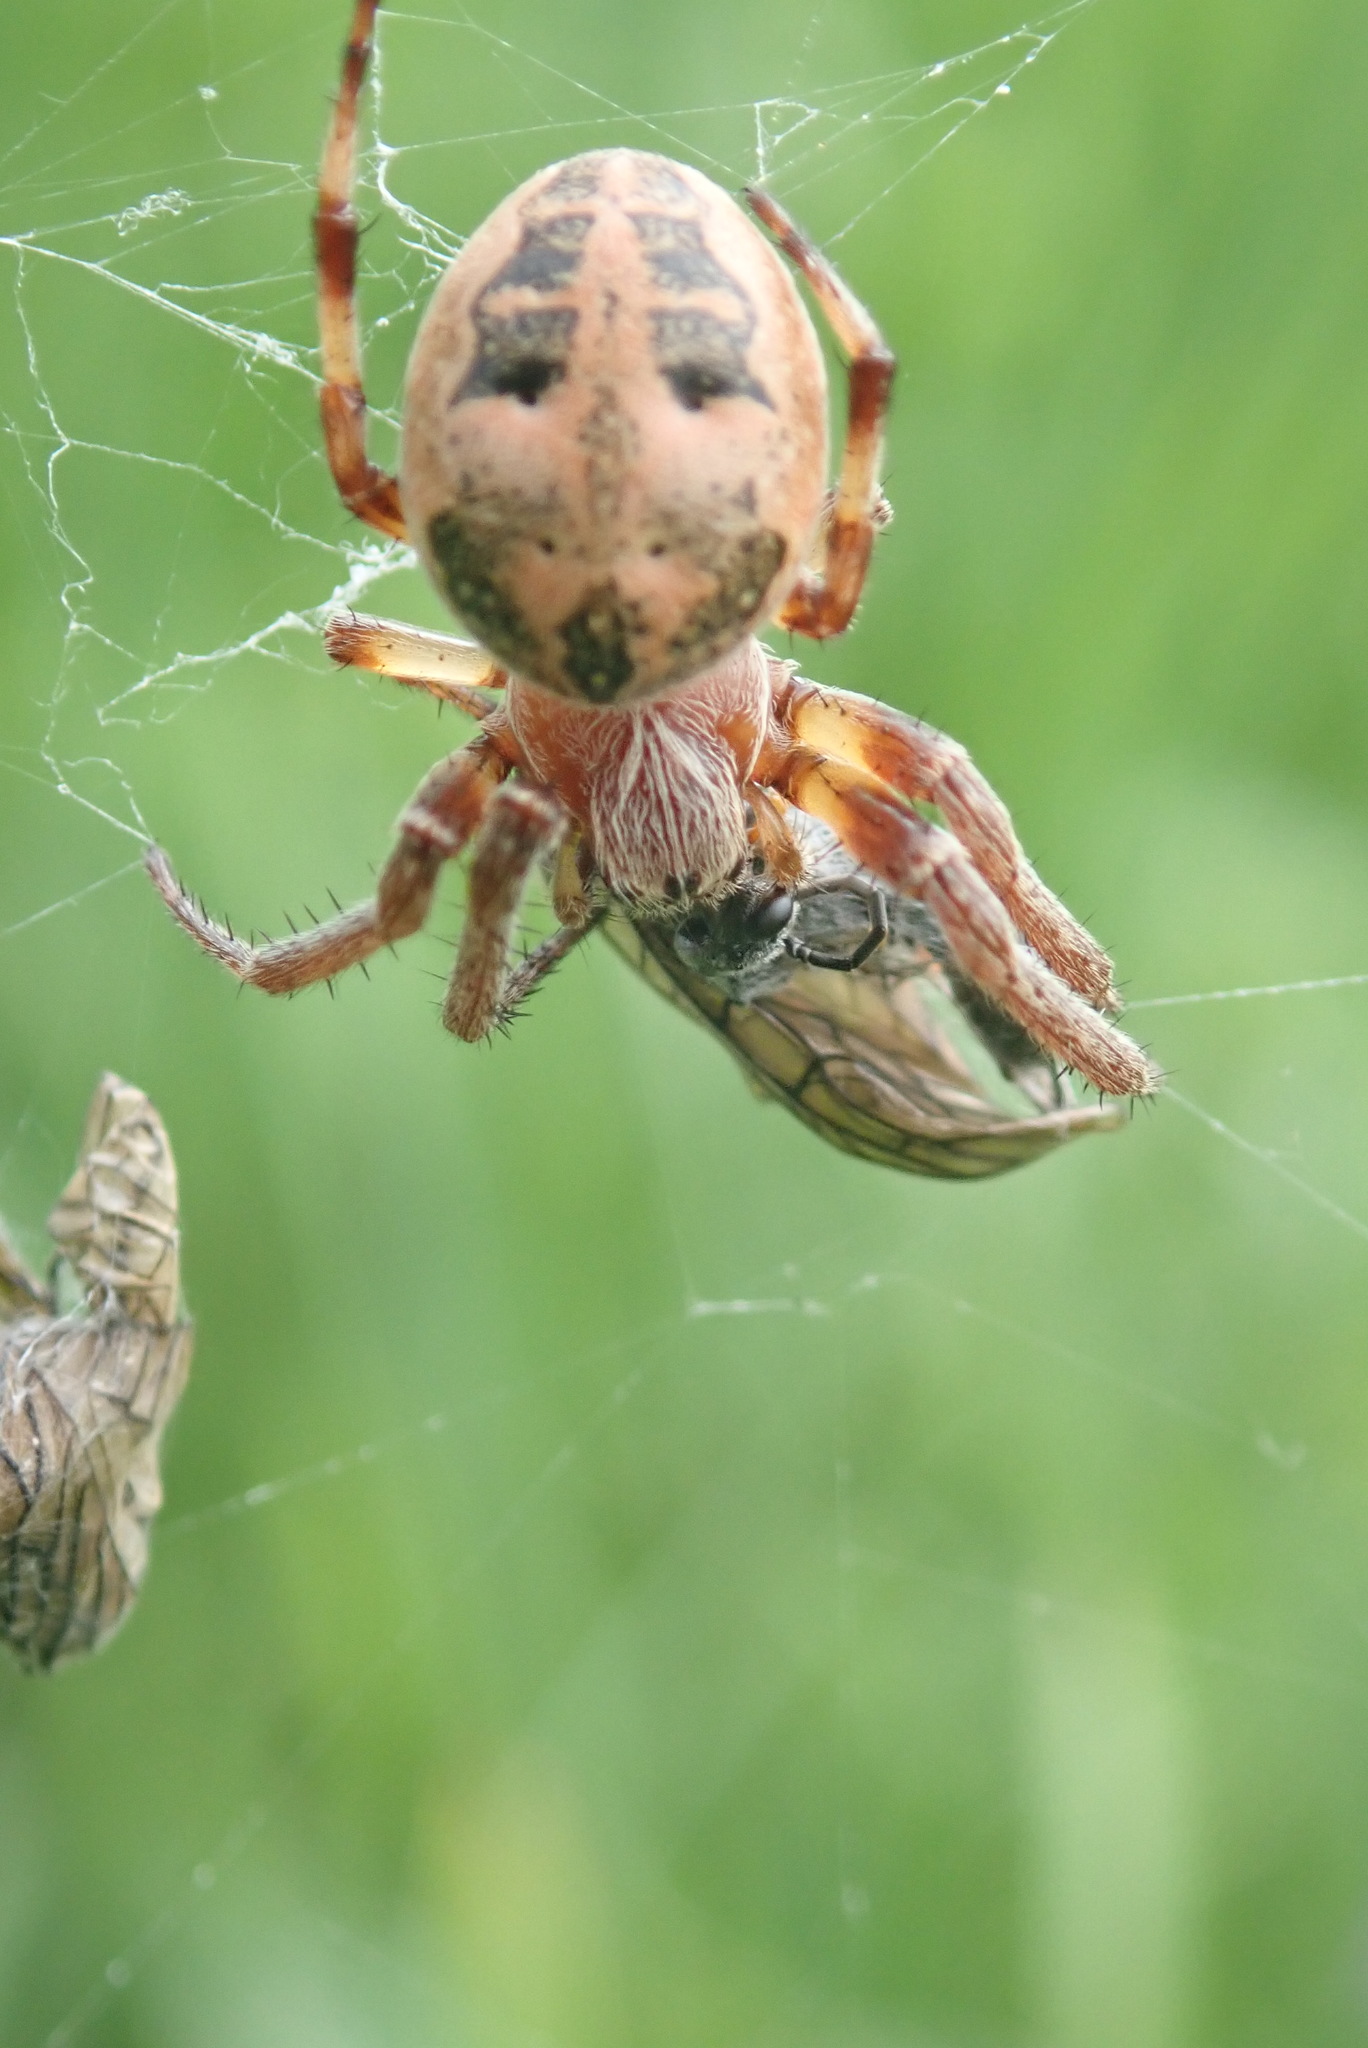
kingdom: Animalia
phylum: Arthropoda
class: Arachnida
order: Araneae
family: Araneidae
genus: Larinioides
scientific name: Larinioides cornutus
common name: Furrow orbweaver
